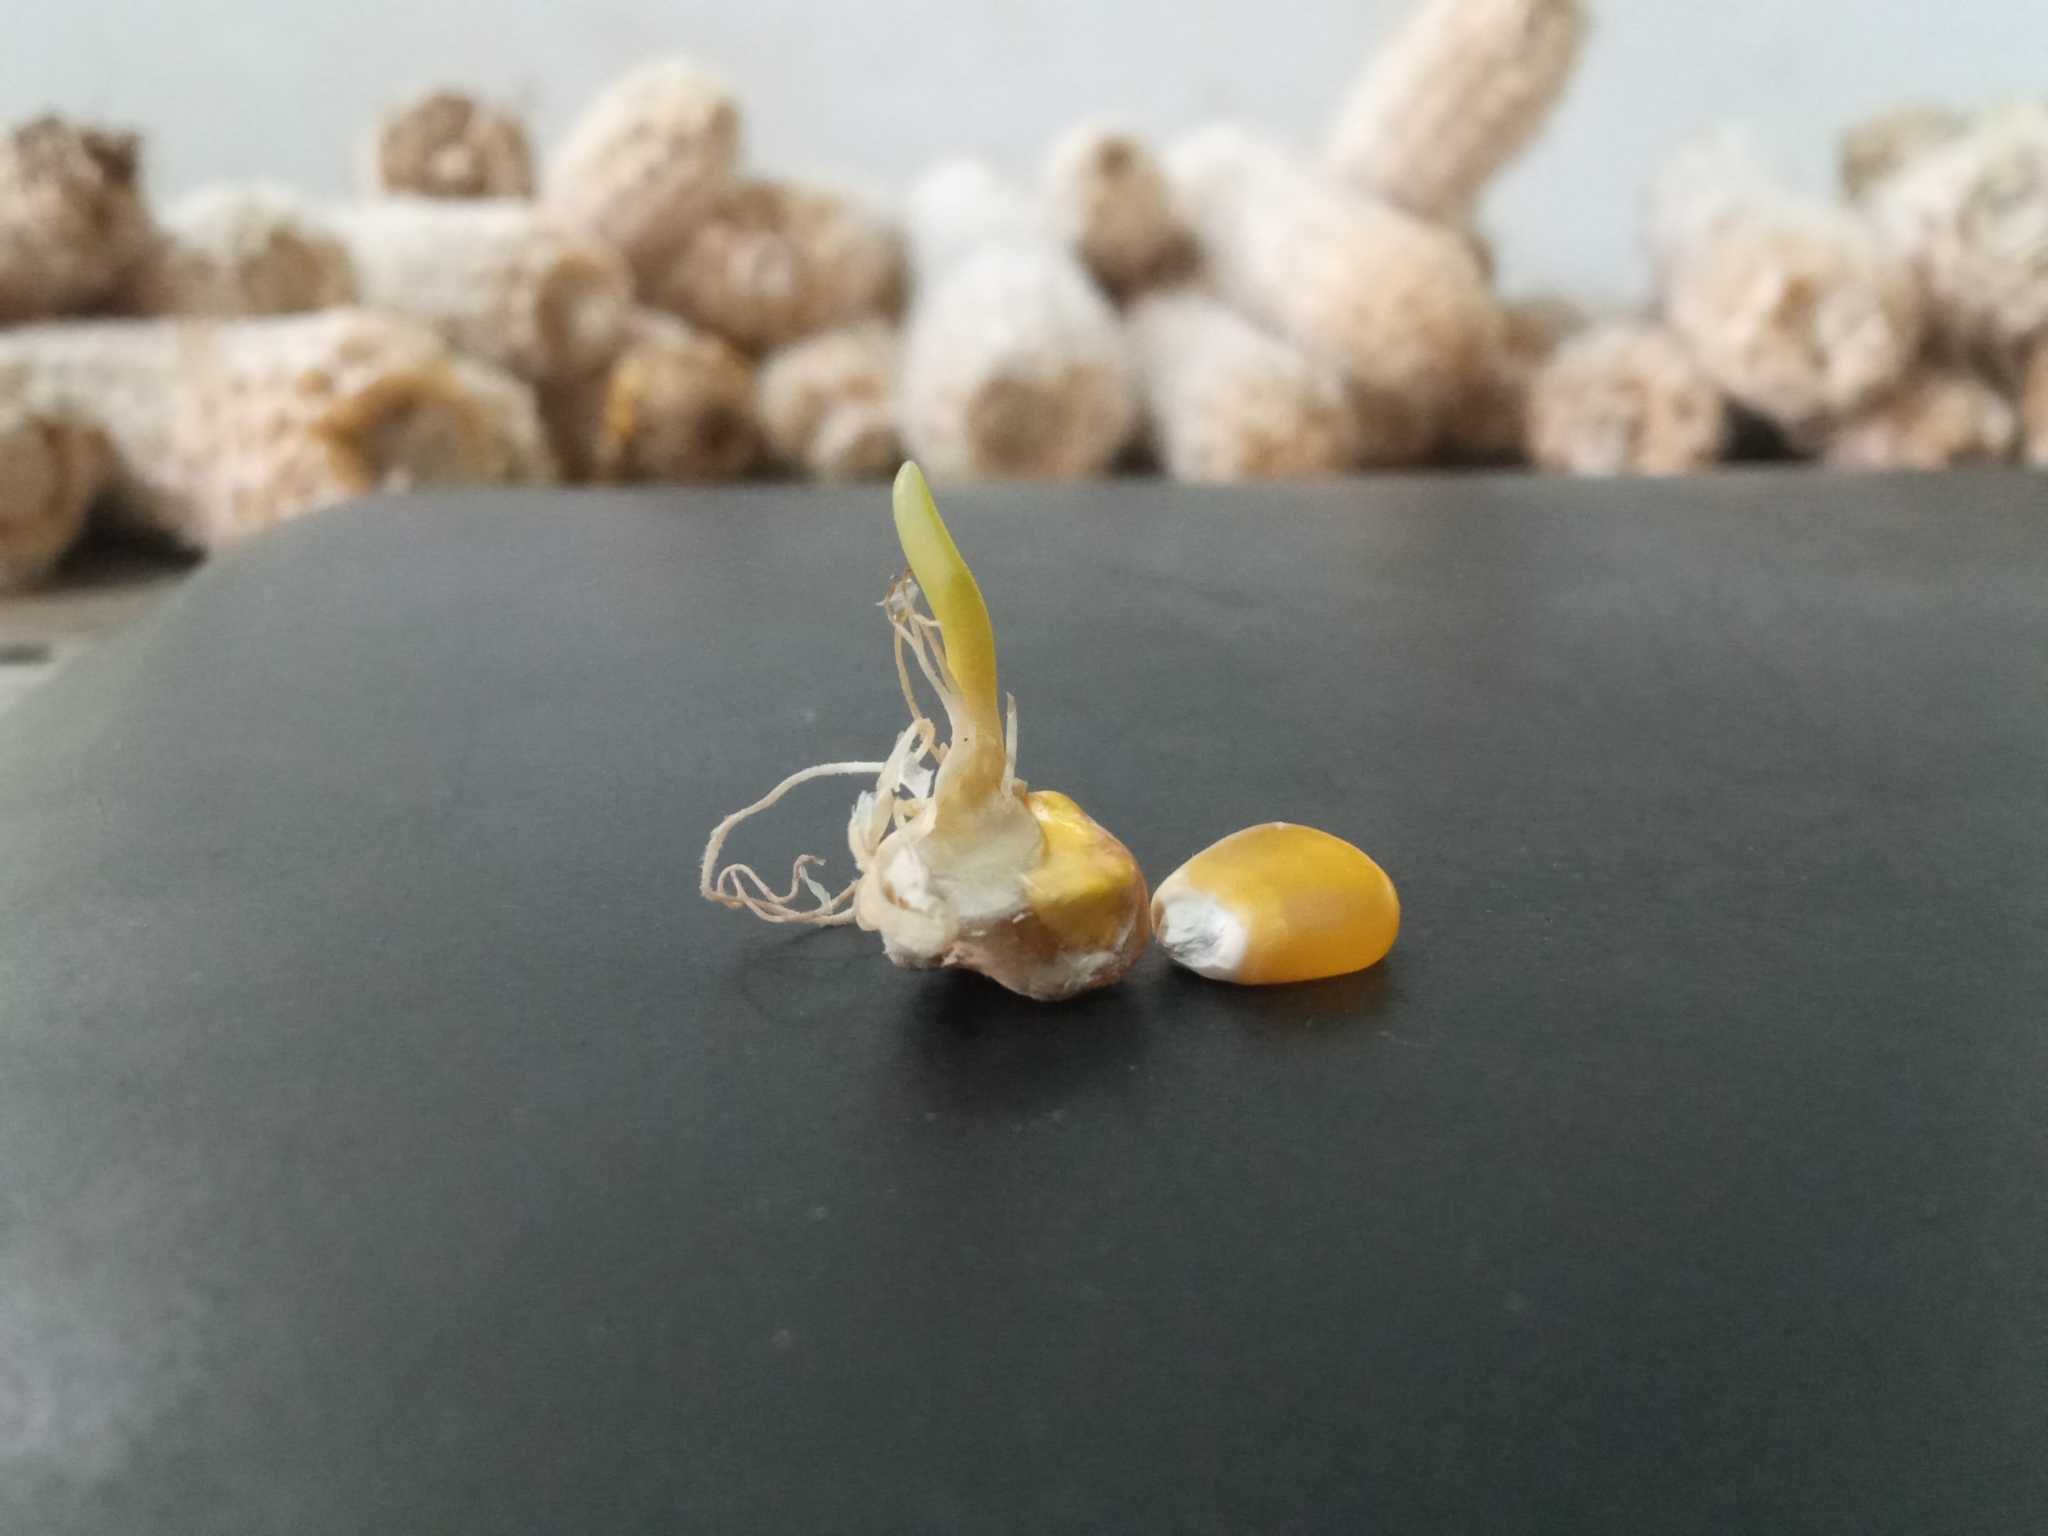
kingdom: Plantae
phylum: Tracheophyta
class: Liliopsida
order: Poales
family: Poaceae
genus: Zea
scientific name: Zea mays
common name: Maize
